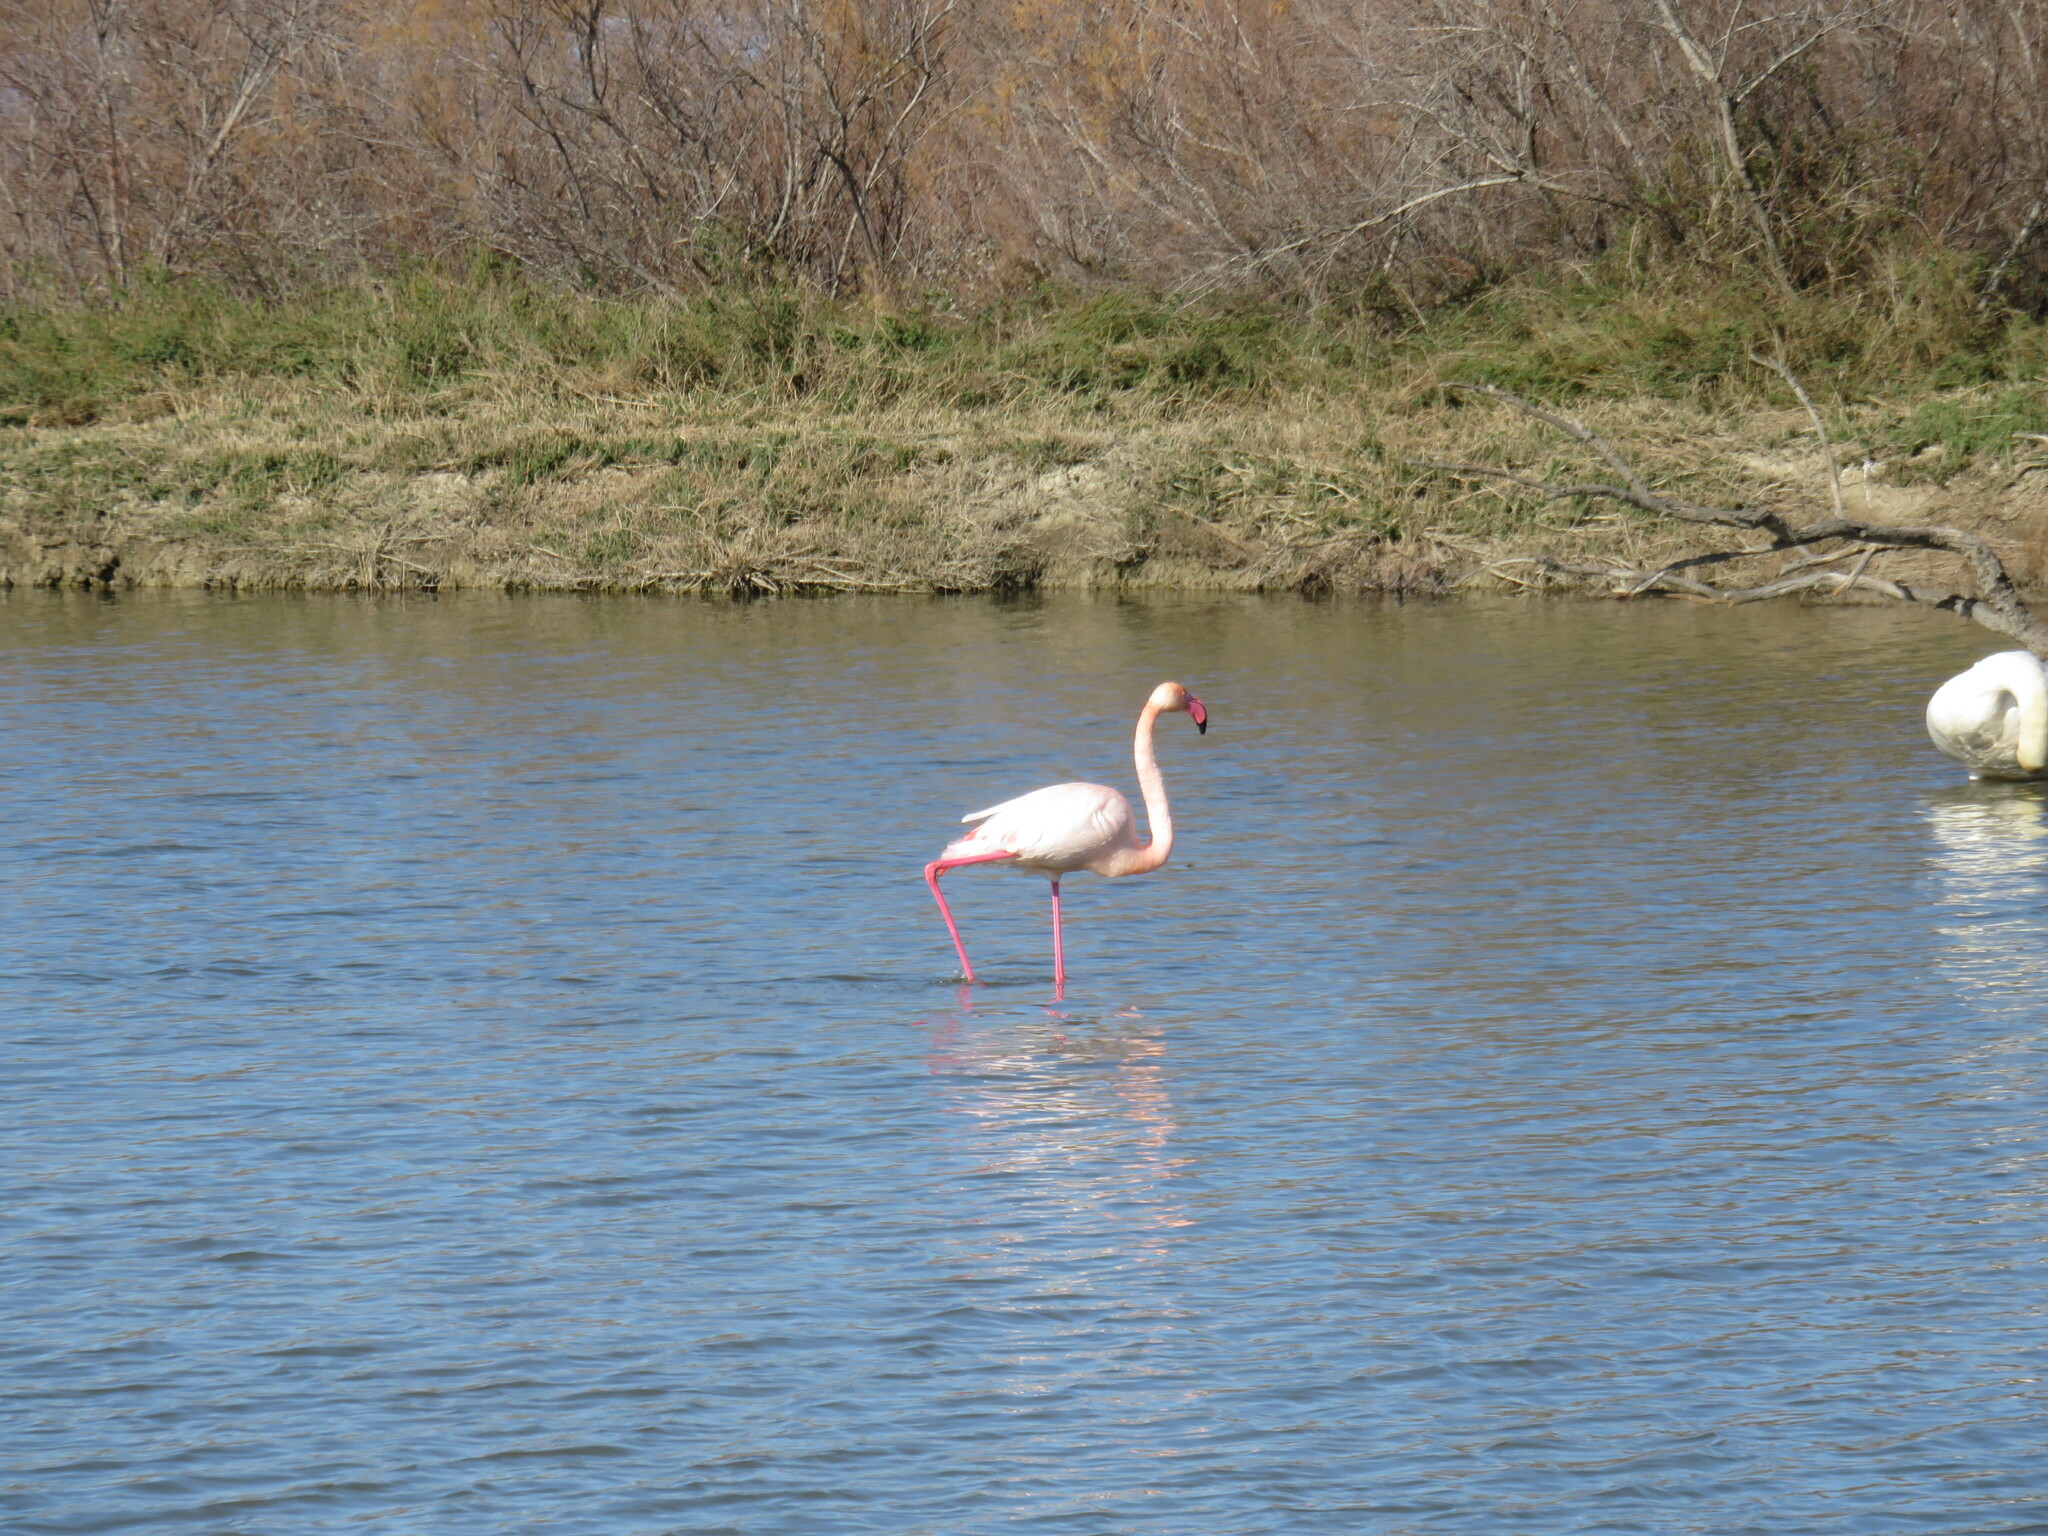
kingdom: Animalia
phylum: Chordata
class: Aves
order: Phoenicopteriformes
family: Phoenicopteridae
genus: Phoenicopterus
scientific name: Phoenicopterus roseus
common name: Greater flamingo
